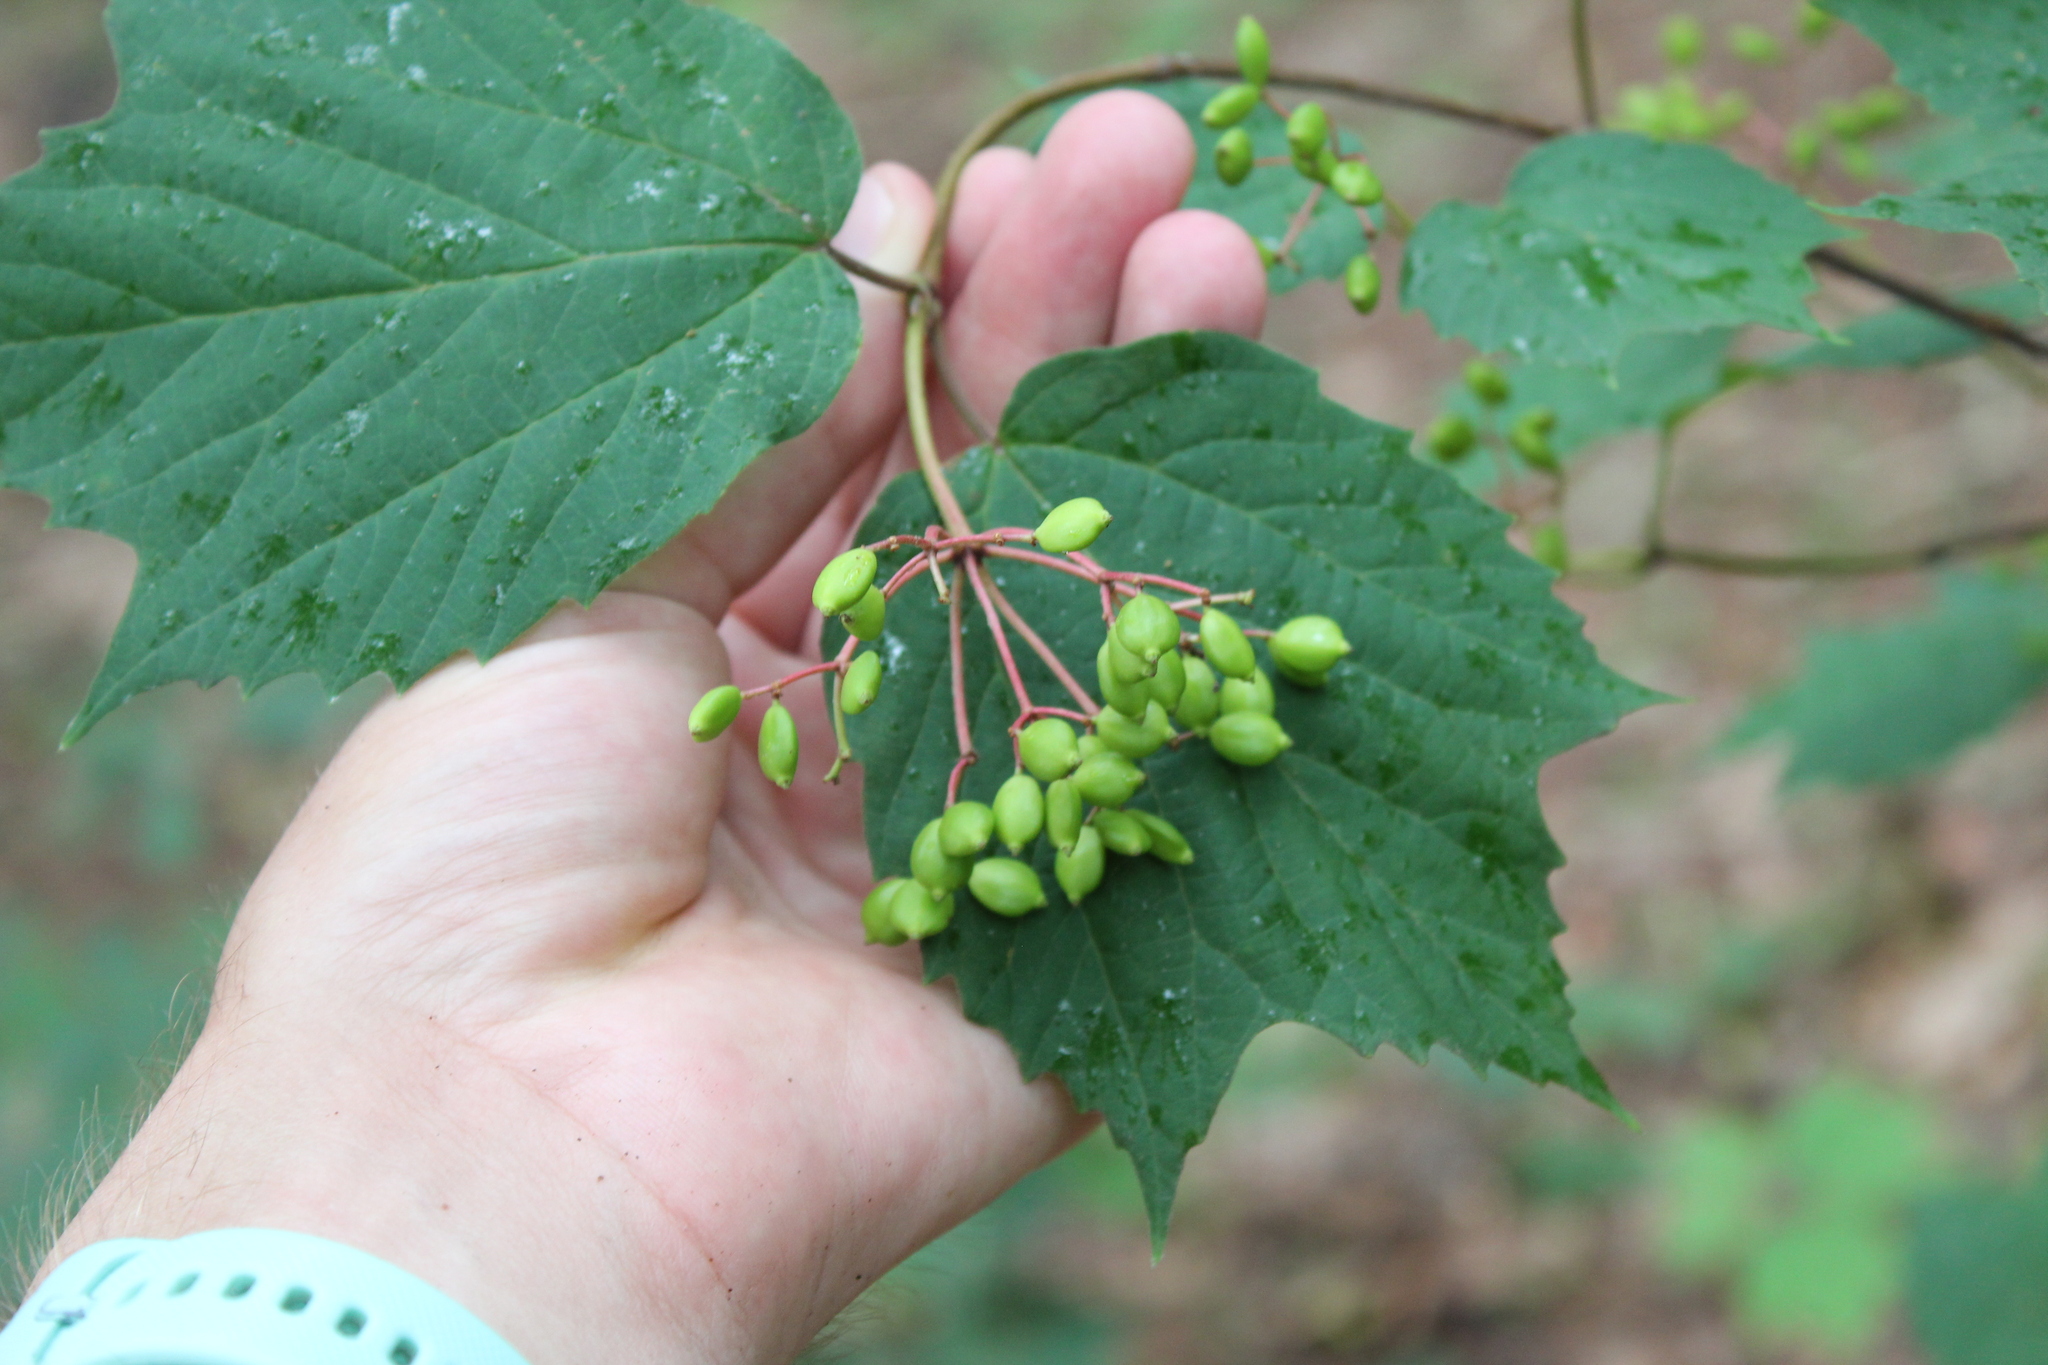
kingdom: Plantae
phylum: Tracheophyta
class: Magnoliopsida
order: Dipsacales
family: Viburnaceae
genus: Viburnum
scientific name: Viburnum acerifolium
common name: Dockmackie
